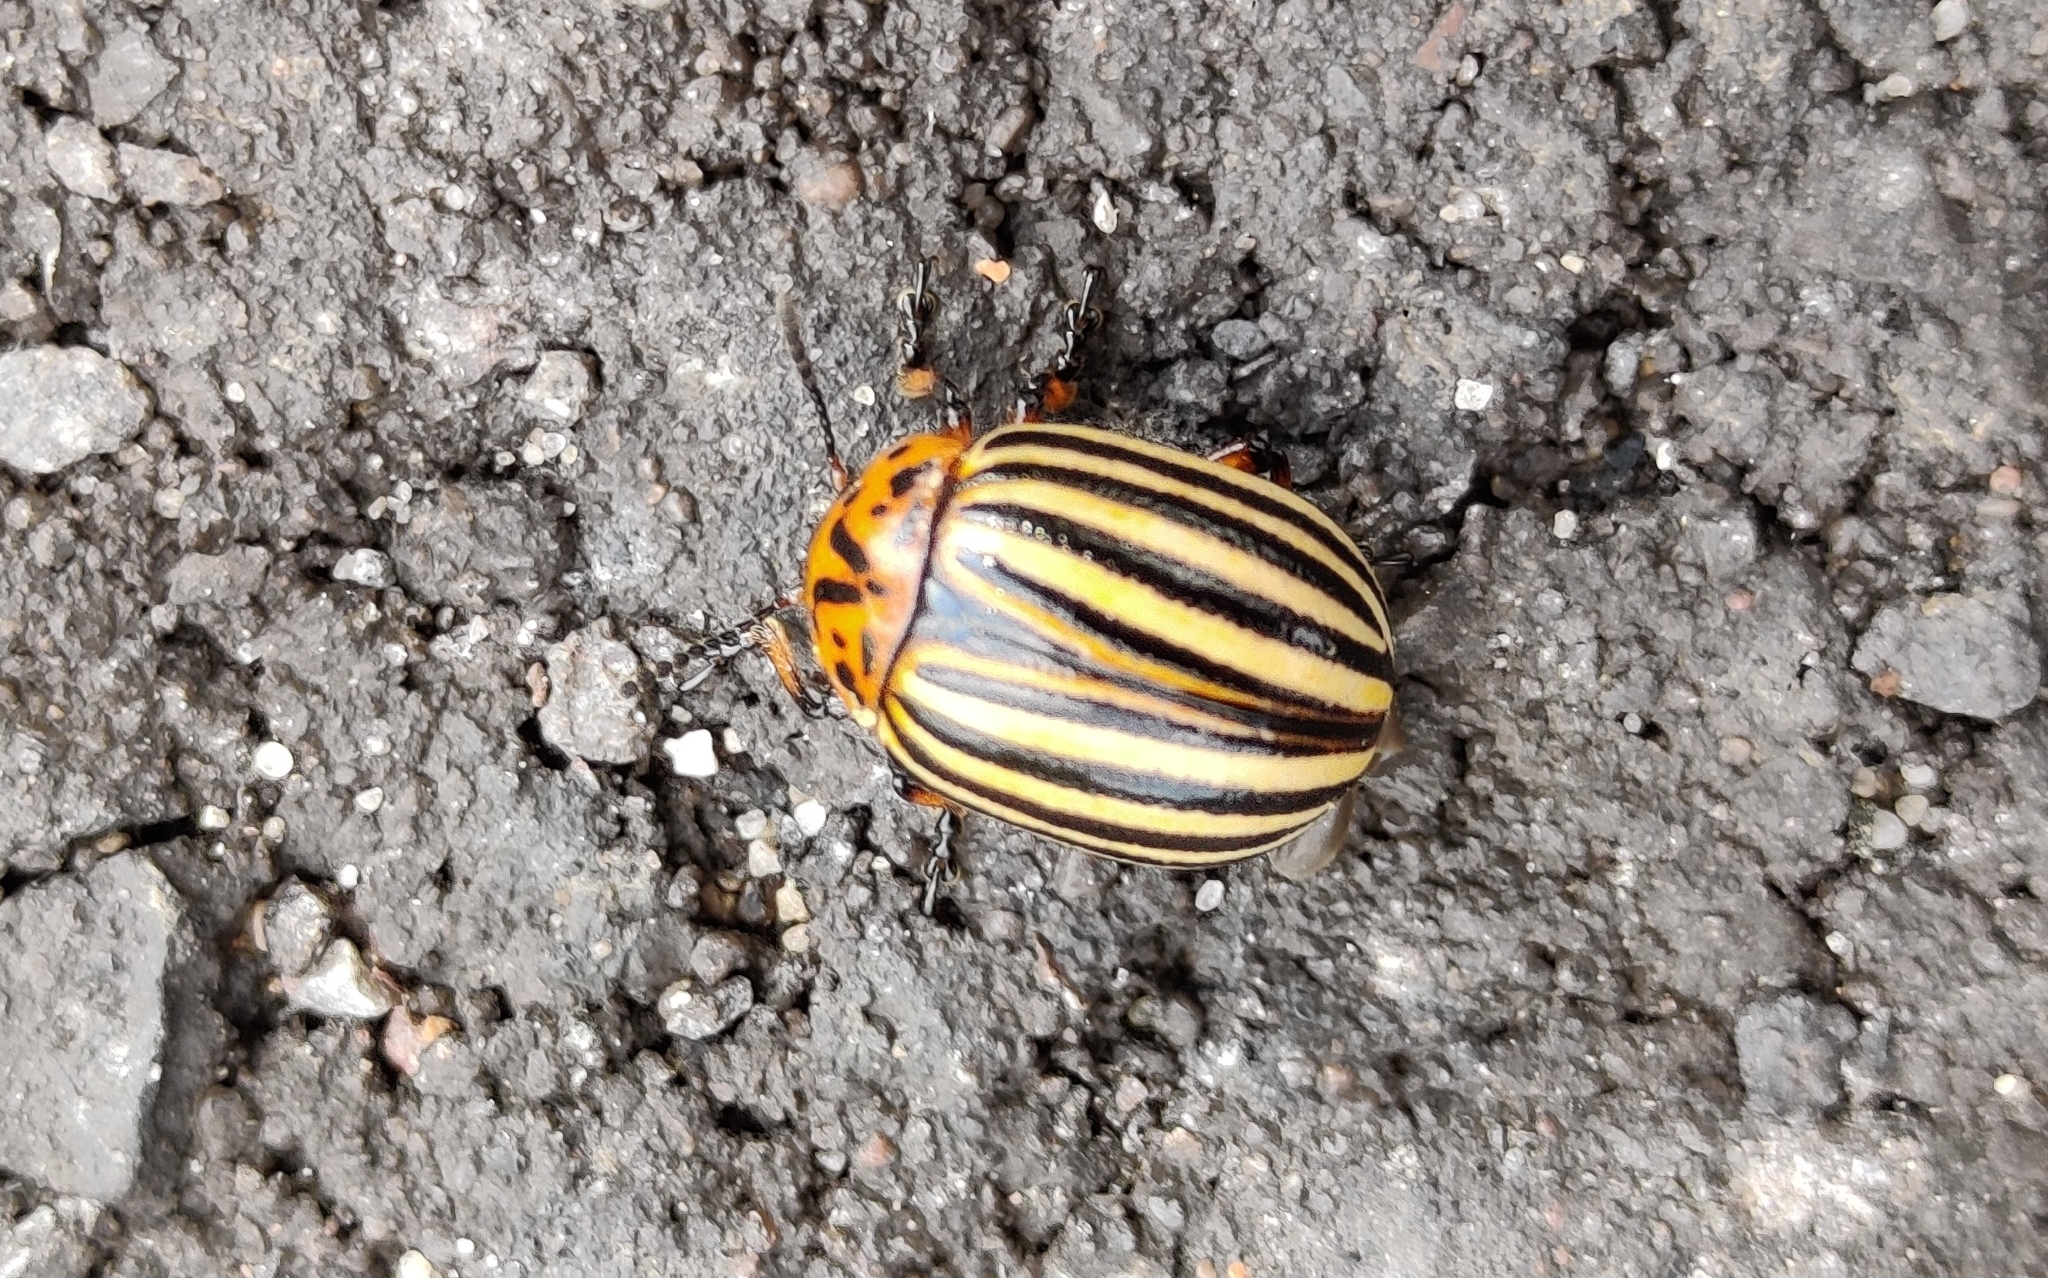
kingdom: Animalia
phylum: Arthropoda
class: Insecta
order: Coleoptera
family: Chrysomelidae
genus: Leptinotarsa
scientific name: Leptinotarsa decemlineata
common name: Colorado potato beetle
